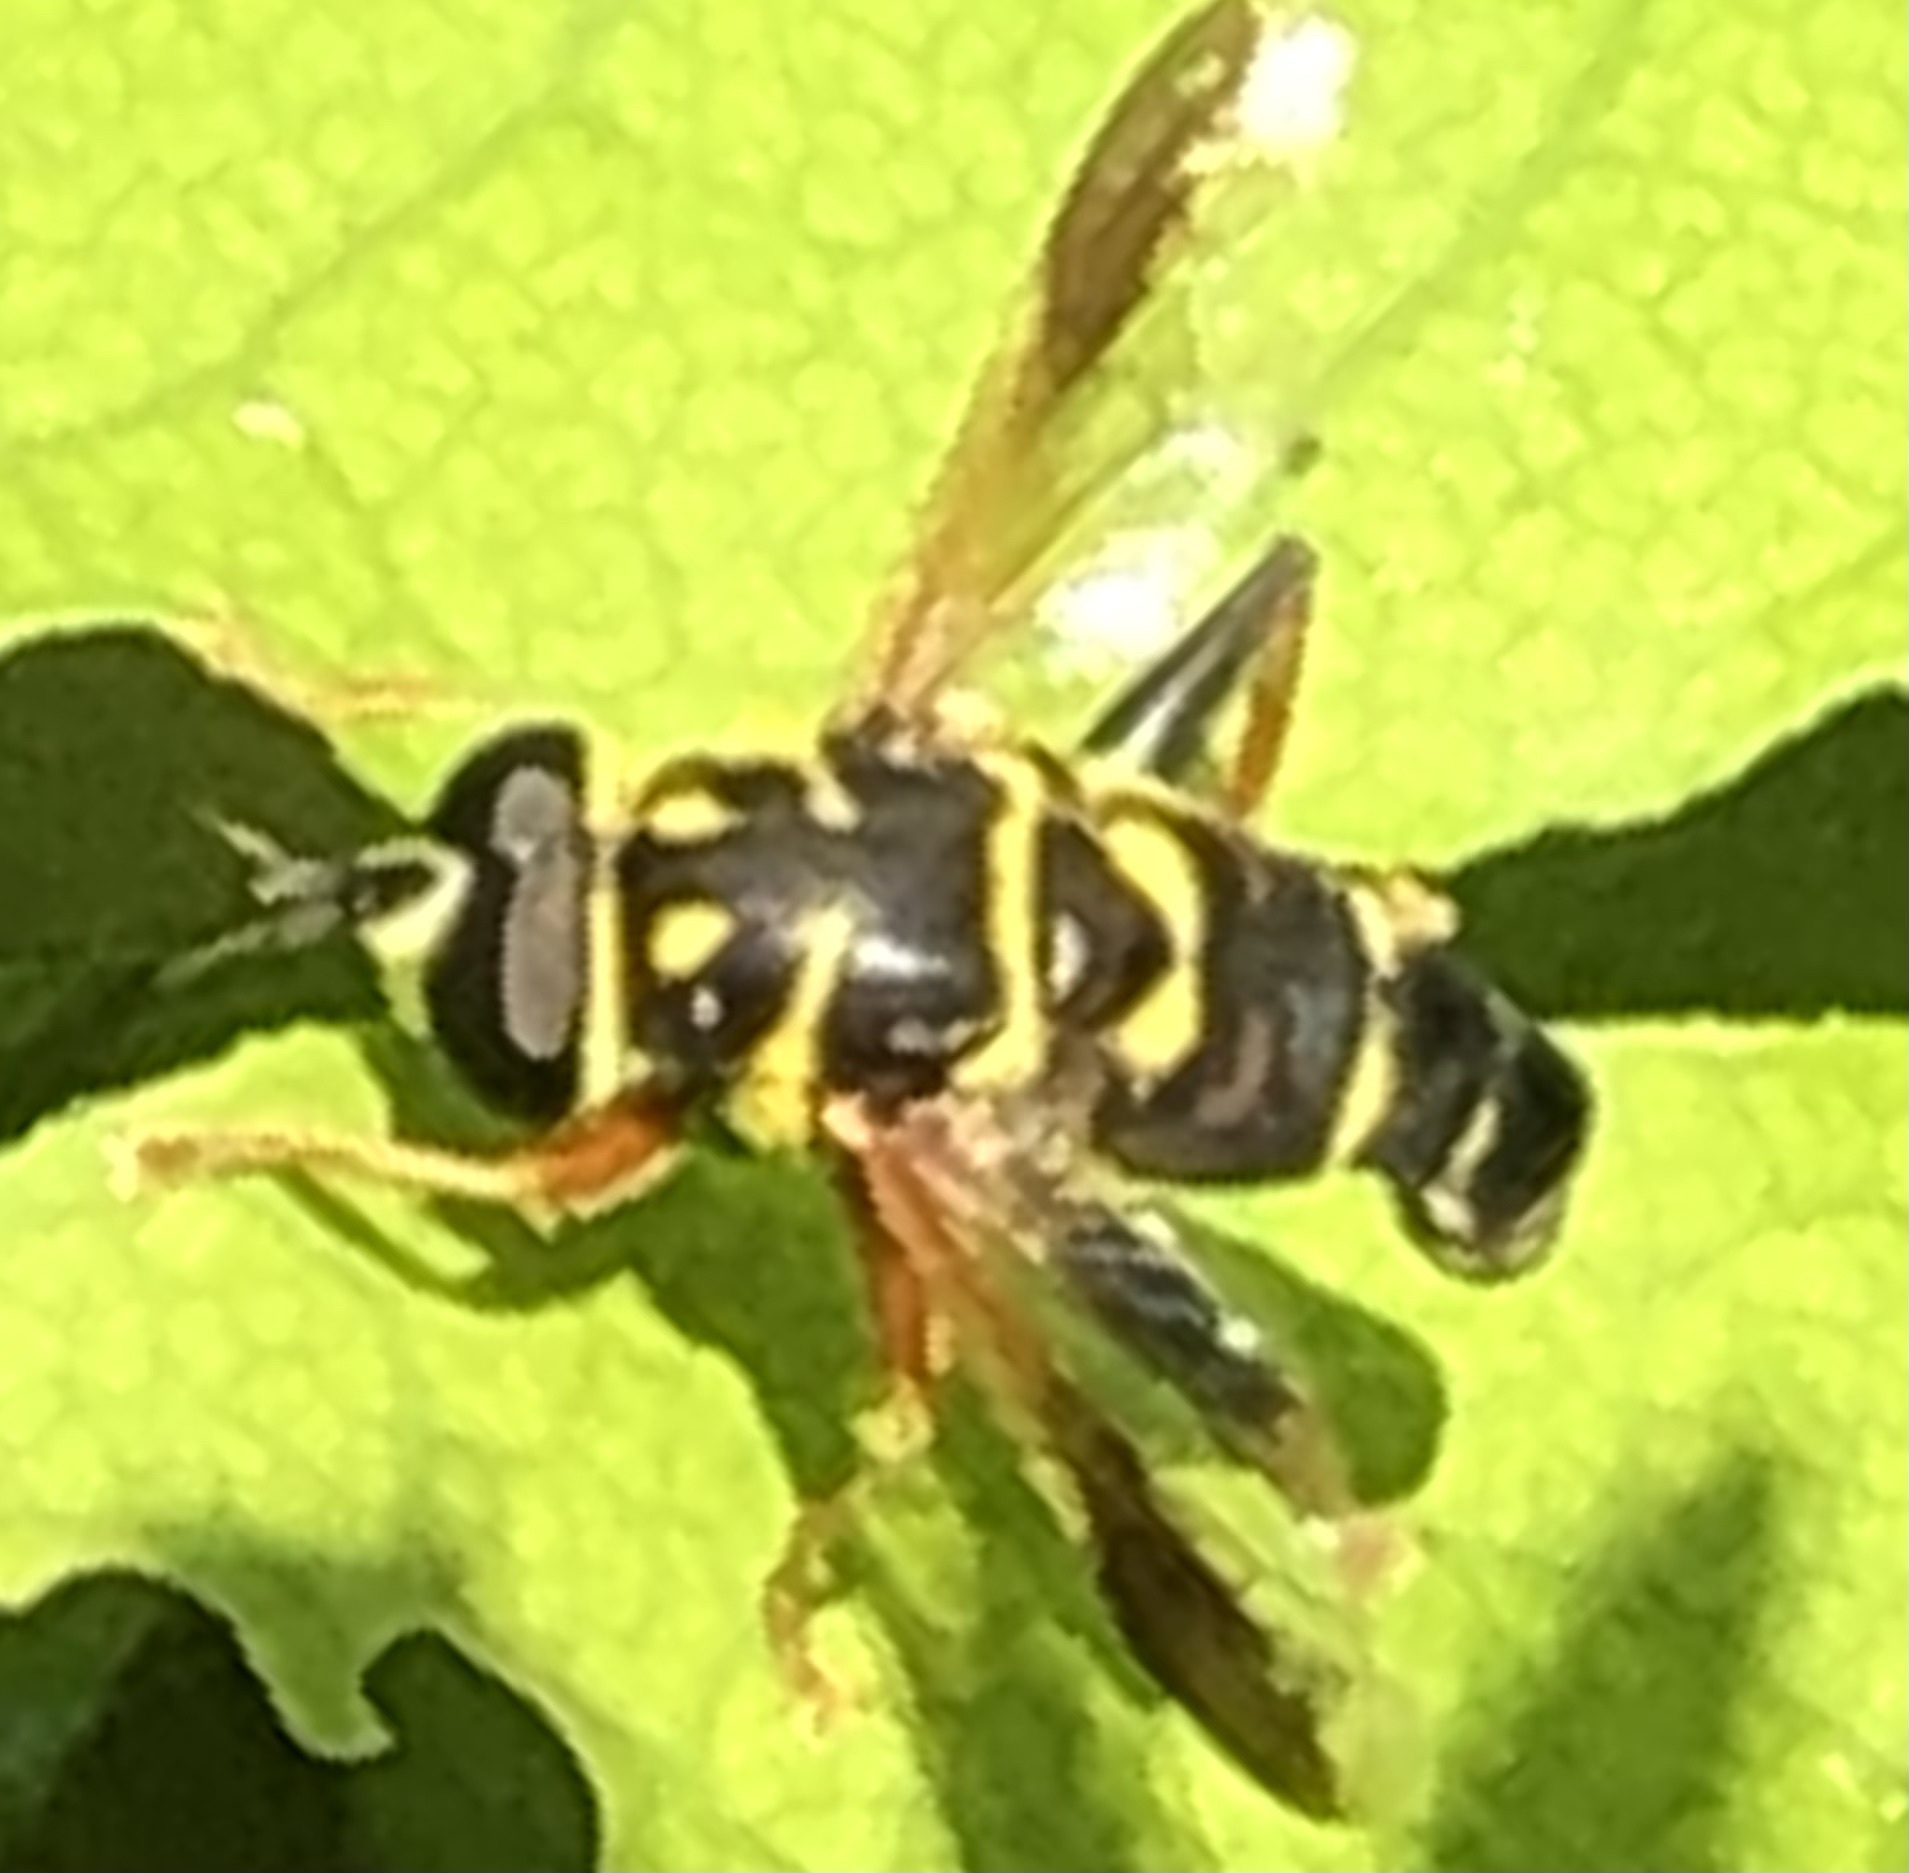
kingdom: Animalia
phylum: Arthropoda
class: Insecta
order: Diptera
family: Syrphidae
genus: Meromacrus
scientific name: Meromacrus acutus
